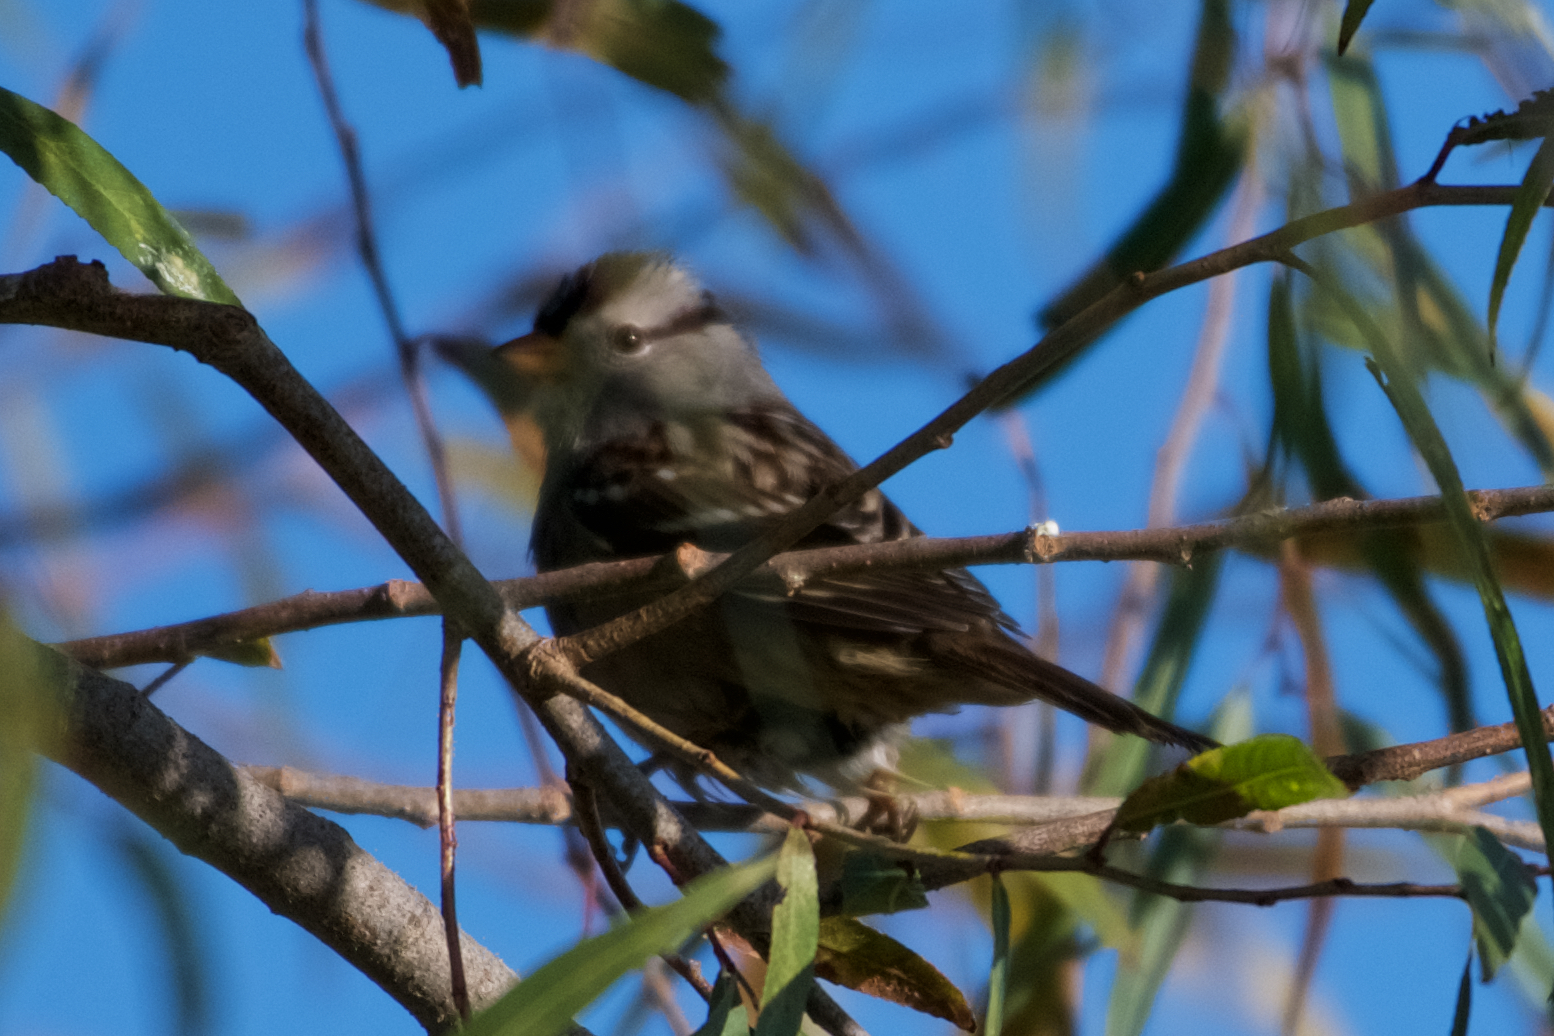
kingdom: Animalia
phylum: Chordata
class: Aves
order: Passeriformes
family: Passerellidae
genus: Zonotrichia
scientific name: Zonotrichia leucophrys
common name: White-crowned sparrow
